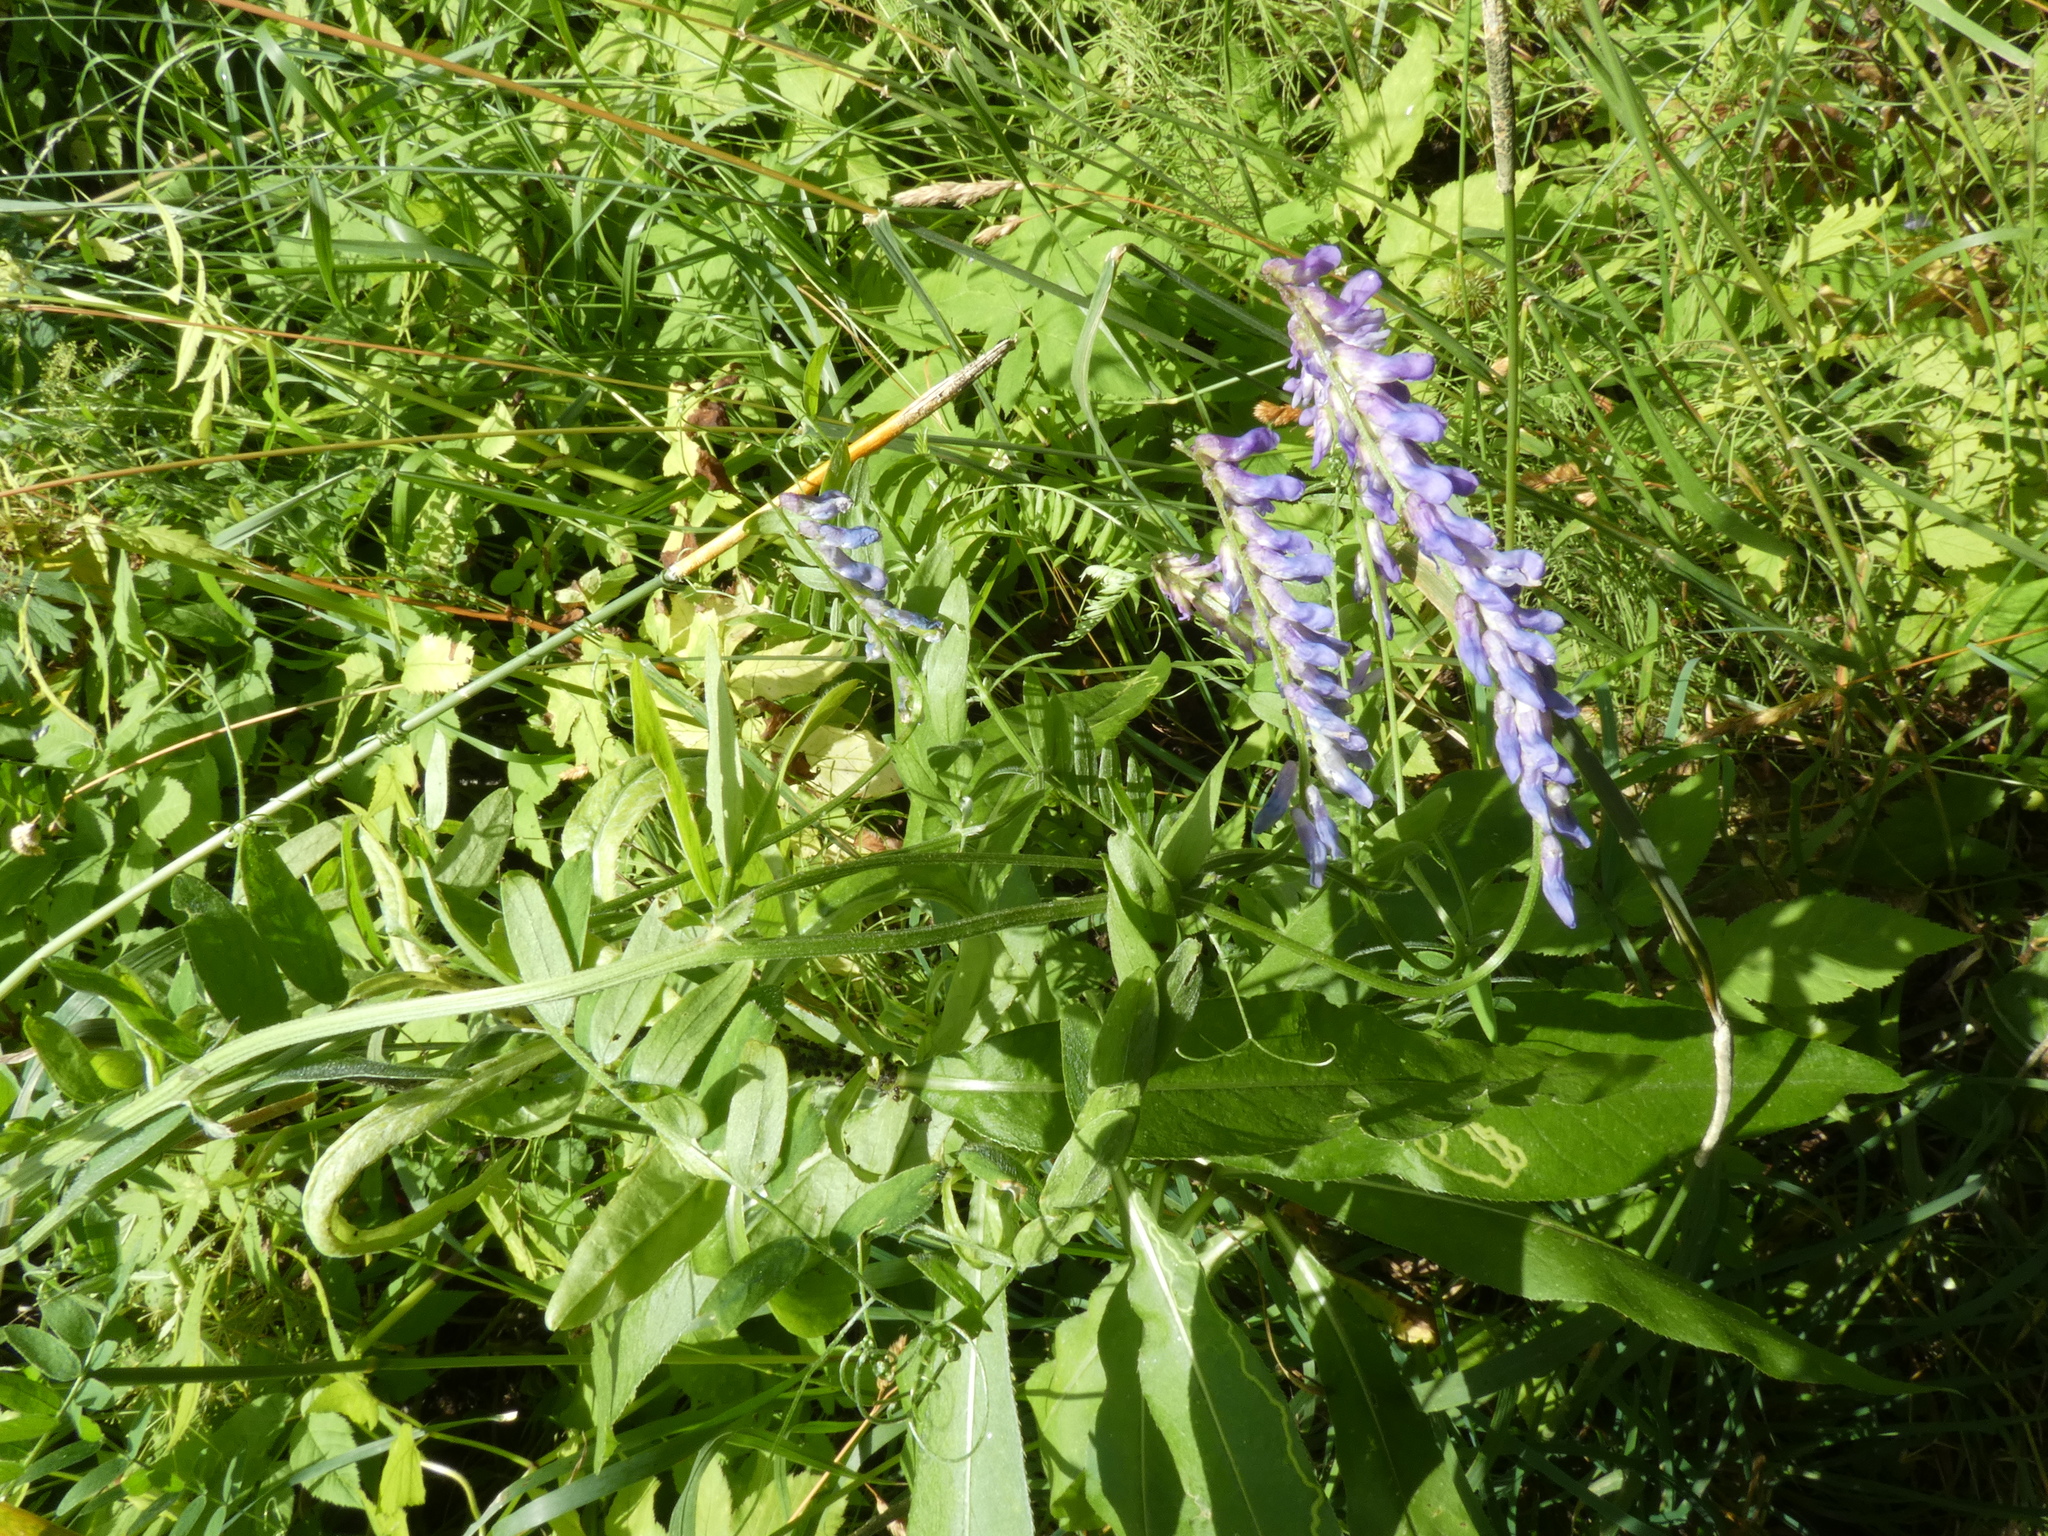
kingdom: Plantae
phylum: Tracheophyta
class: Magnoliopsida
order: Fabales
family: Fabaceae
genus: Vicia
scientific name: Vicia cracca
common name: Bird vetch
